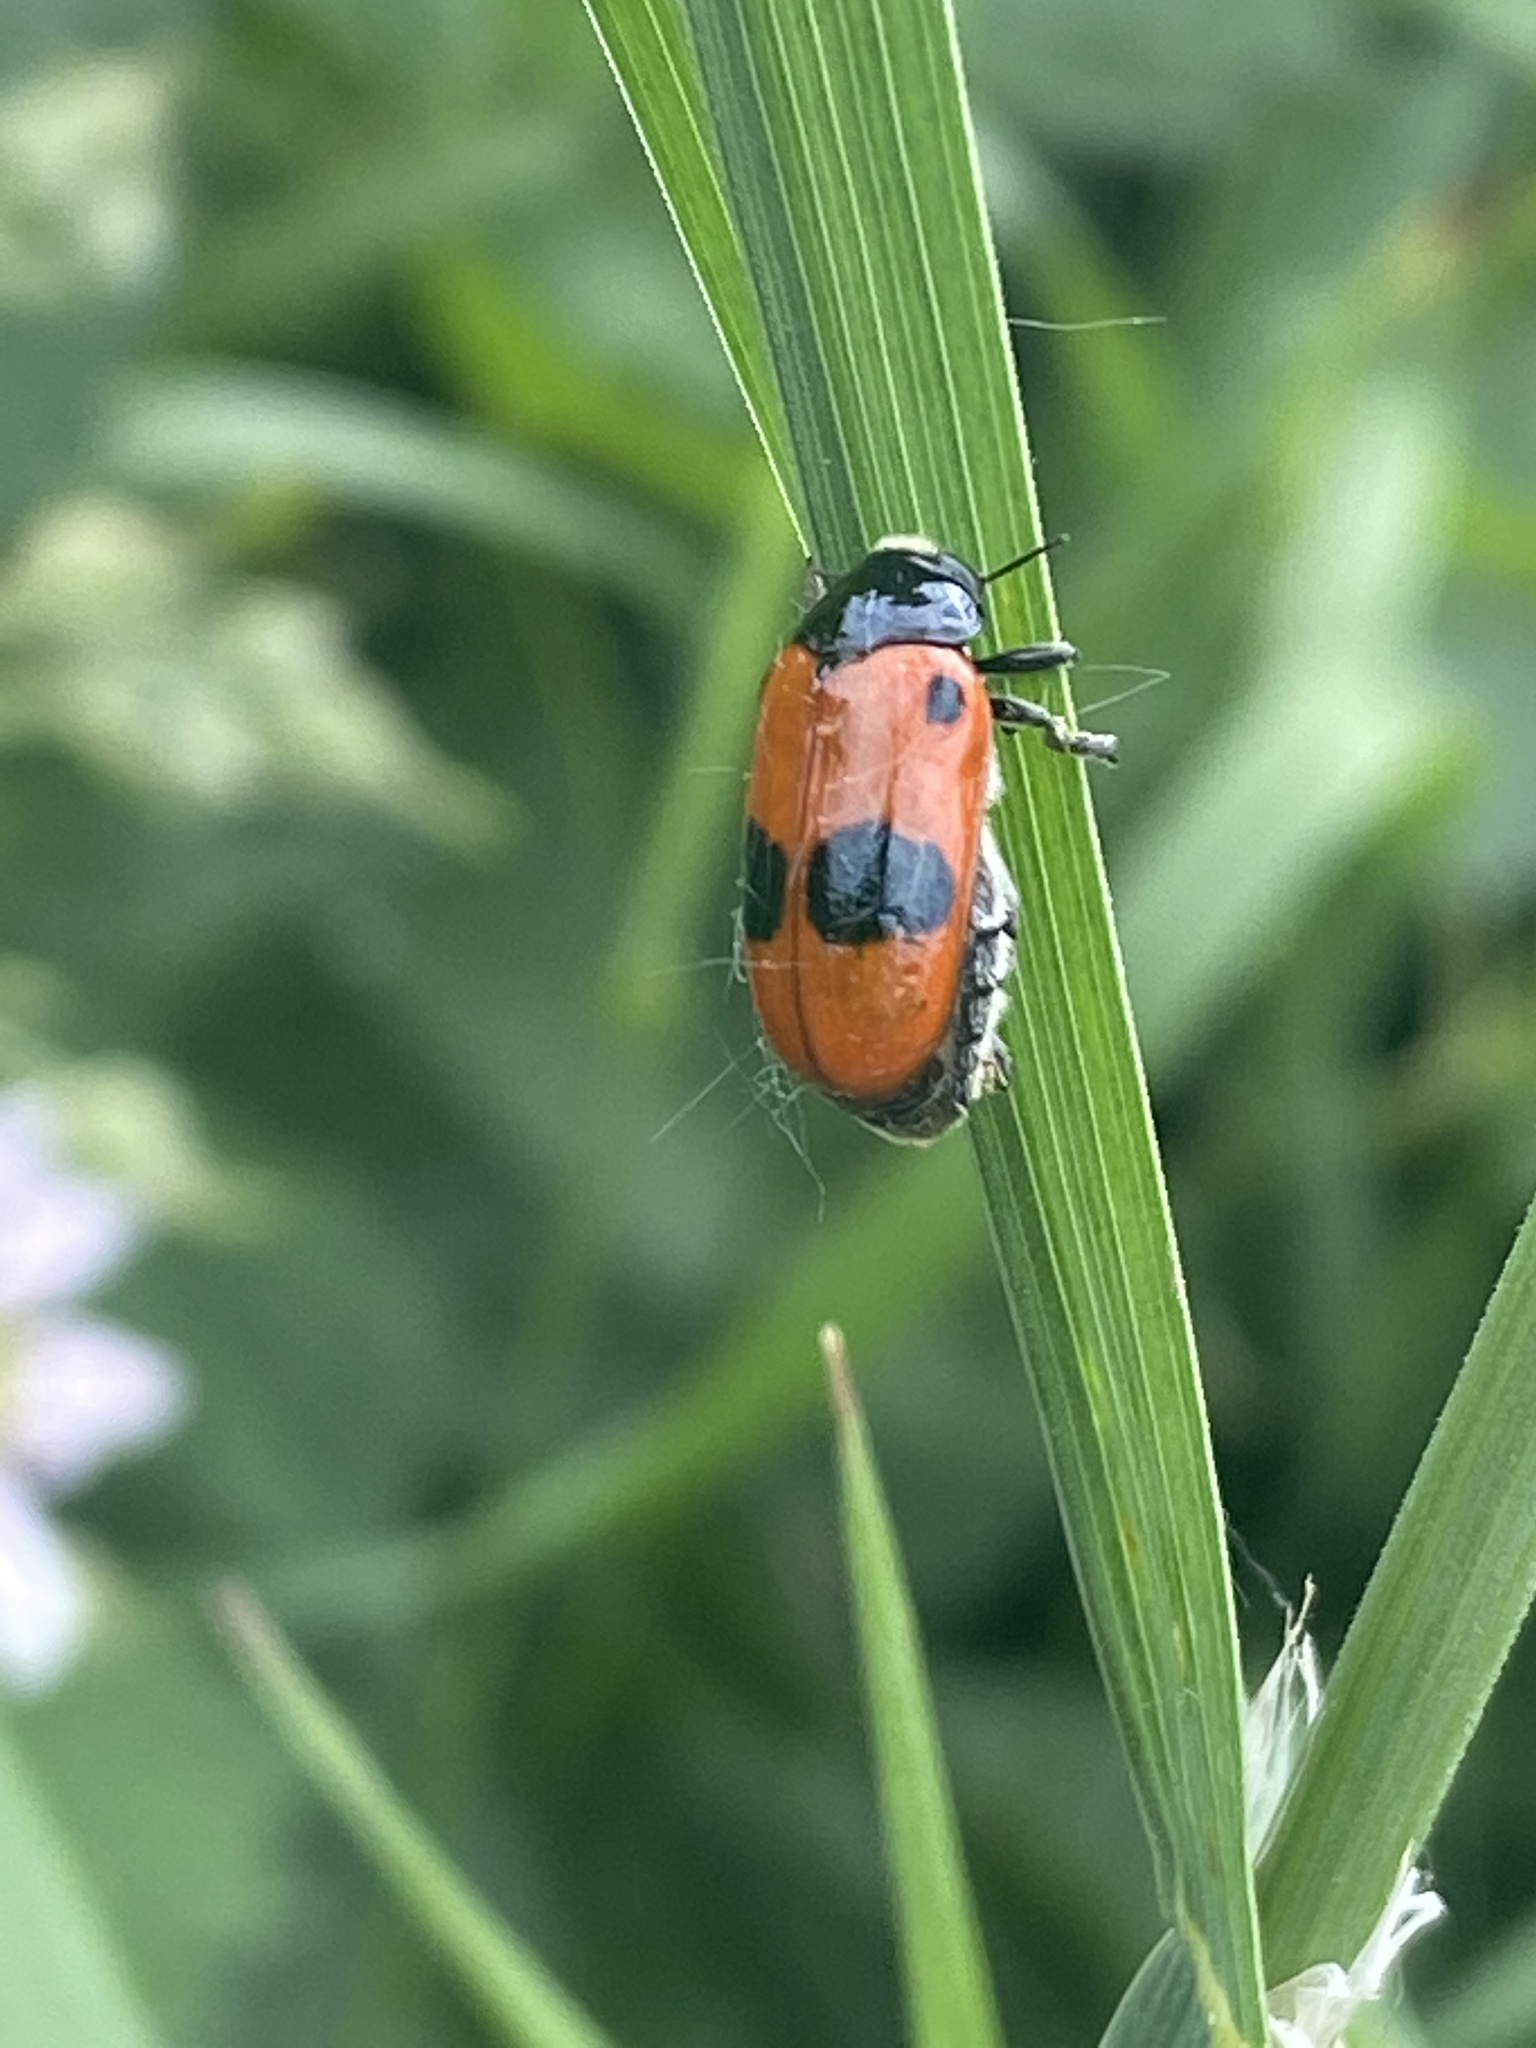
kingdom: Animalia
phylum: Arthropoda
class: Insecta
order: Coleoptera
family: Chrysomelidae
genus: Clytra
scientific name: Clytra laeviuscula
